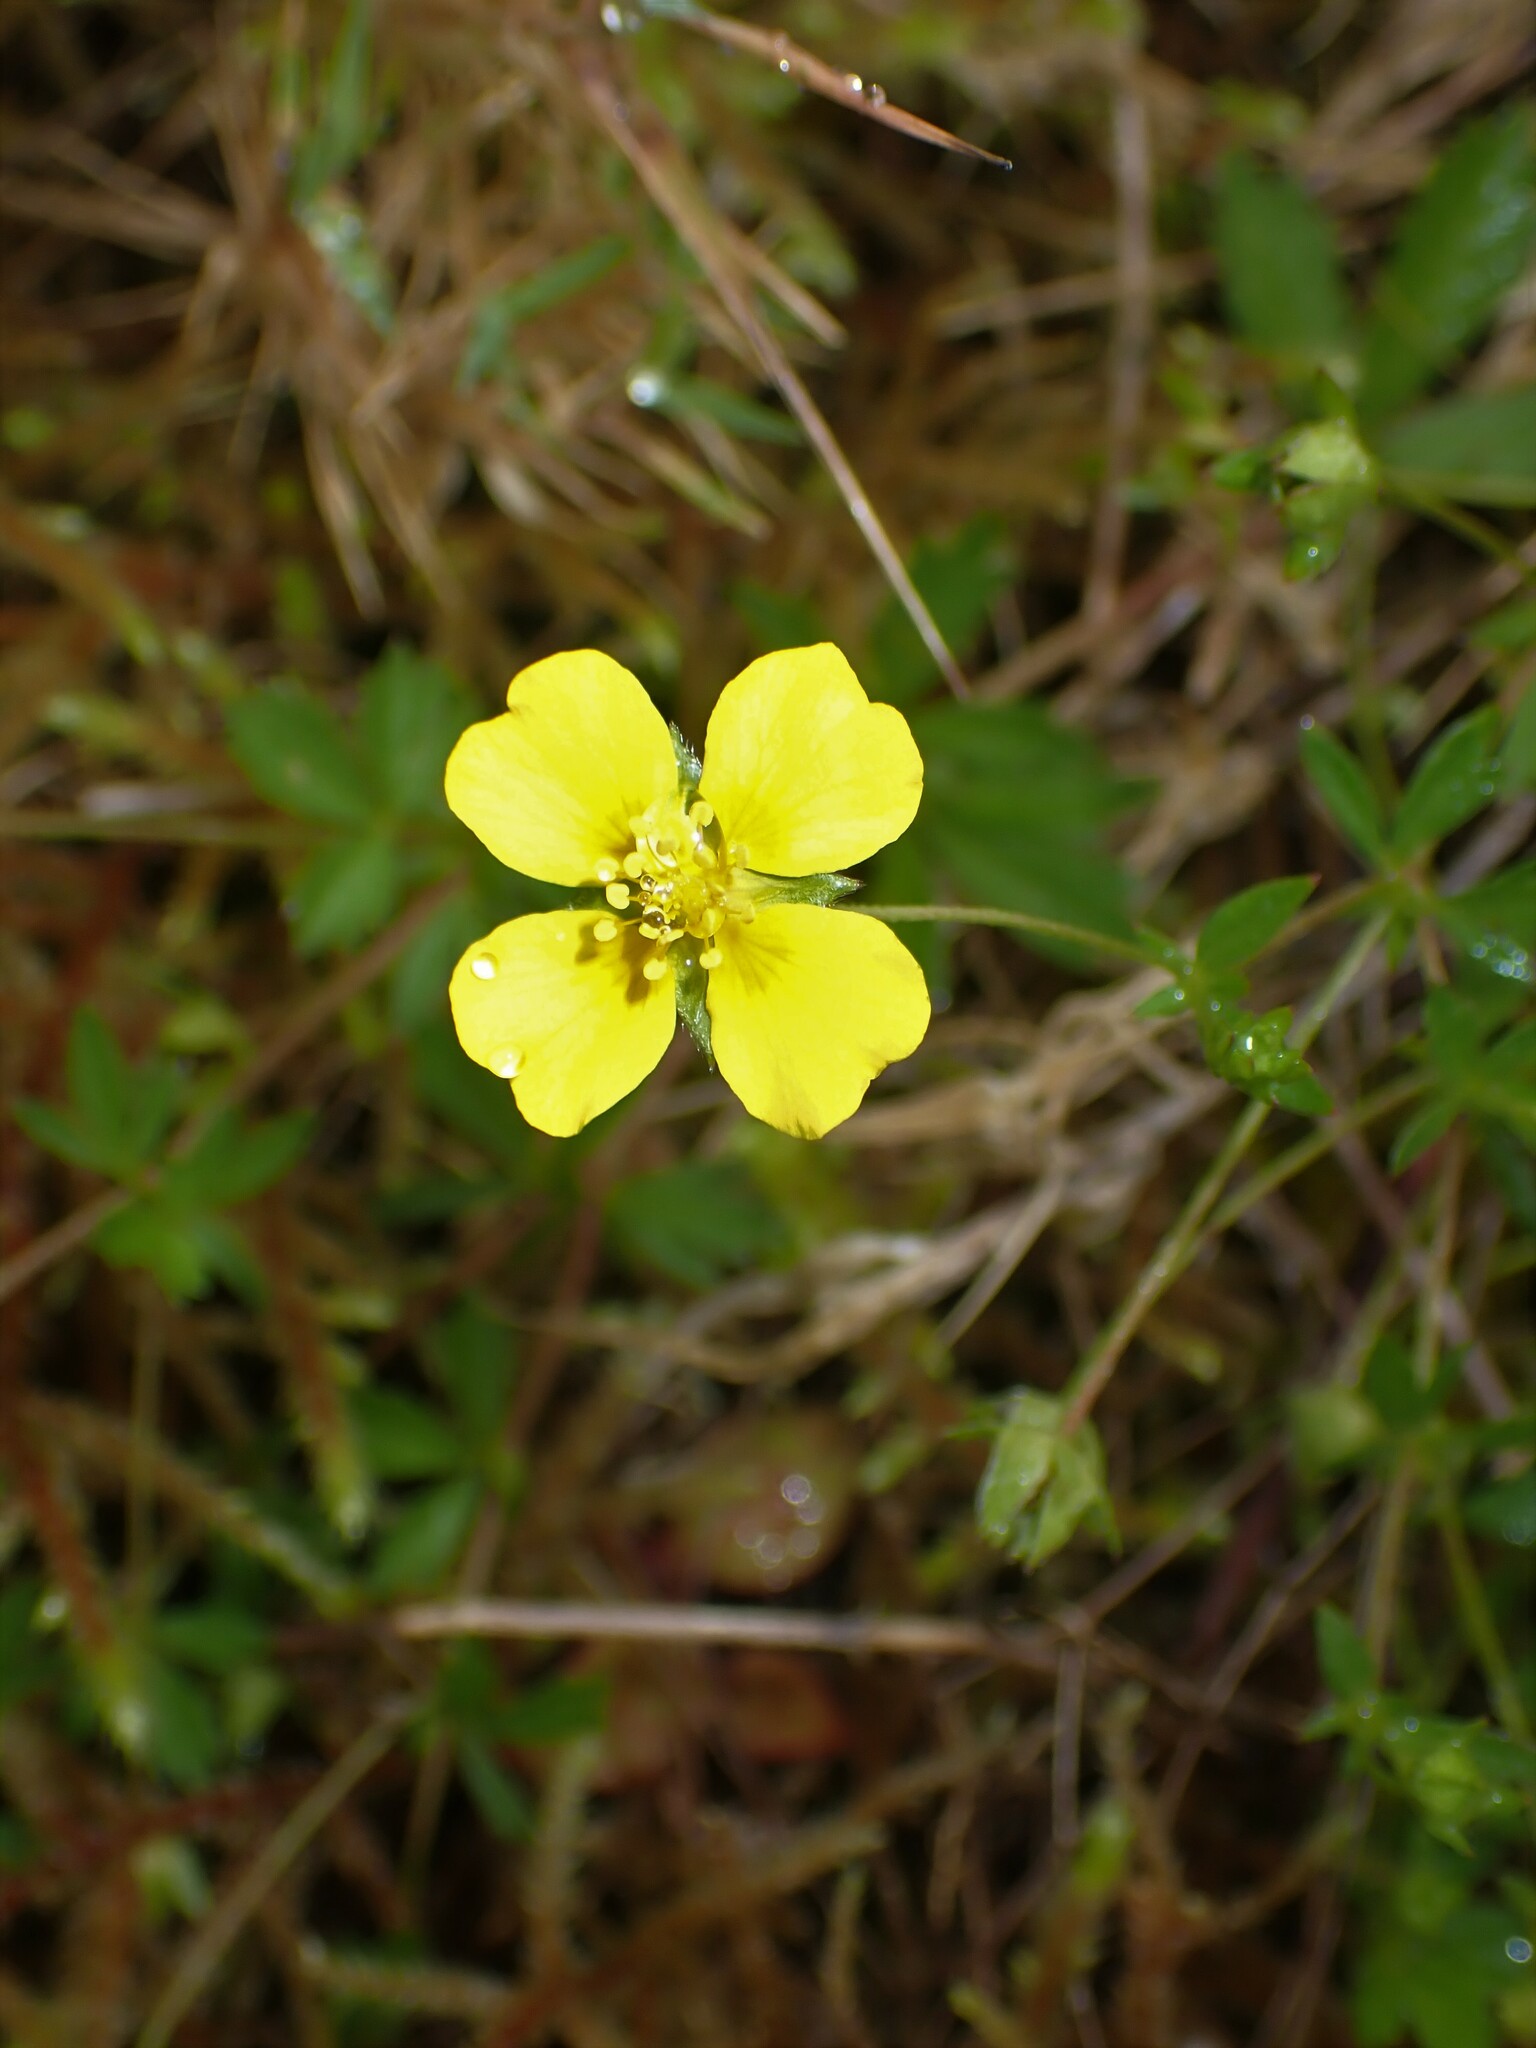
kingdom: Plantae
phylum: Tracheophyta
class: Magnoliopsida
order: Rosales
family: Rosaceae
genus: Potentilla
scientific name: Potentilla erecta
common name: Tormentil
